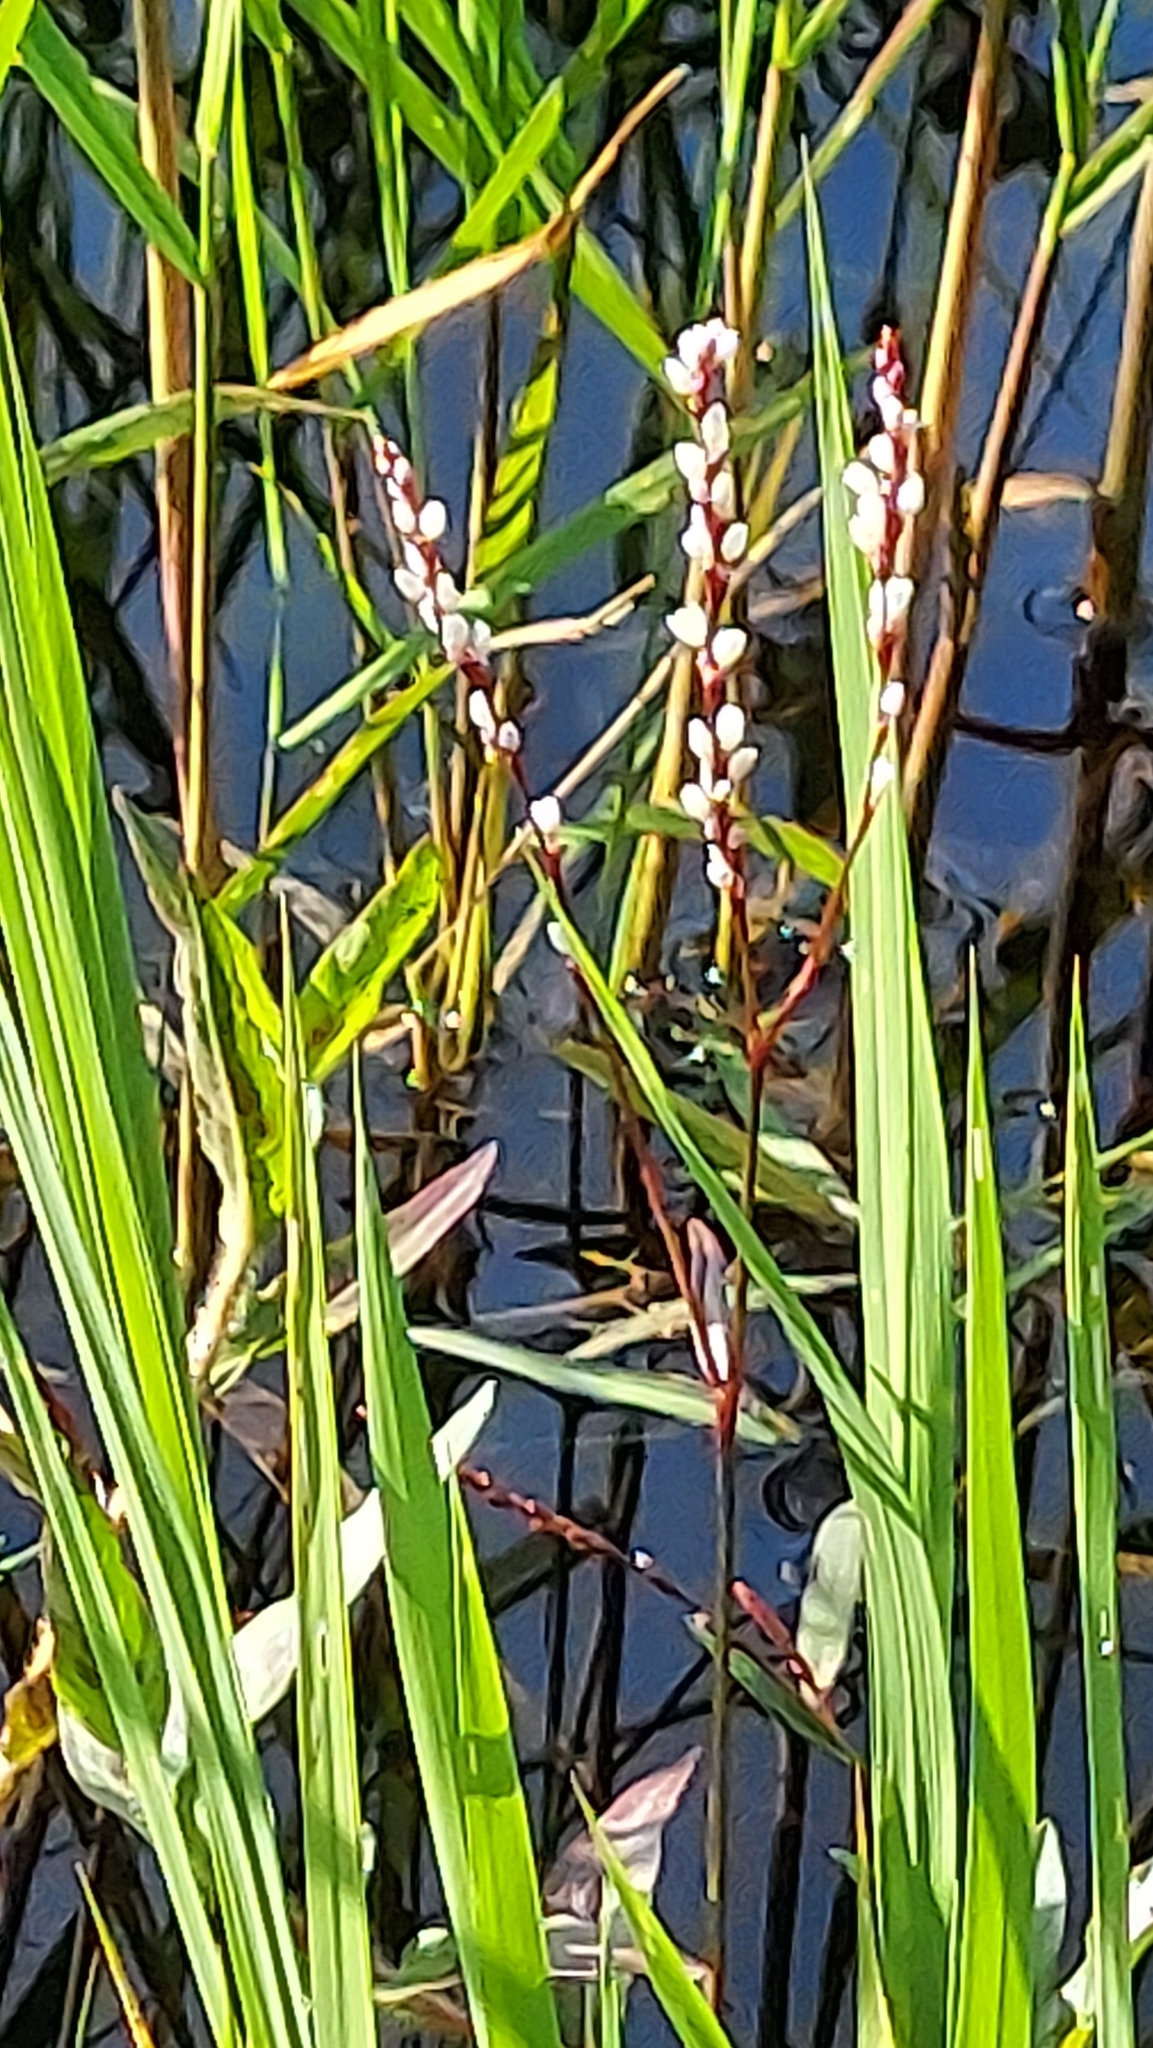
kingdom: Plantae
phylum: Tracheophyta
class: Magnoliopsida
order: Caryophyllales
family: Polygonaceae
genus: Persicaria
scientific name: Persicaria hydropiperoides
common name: Swamp smartweed
